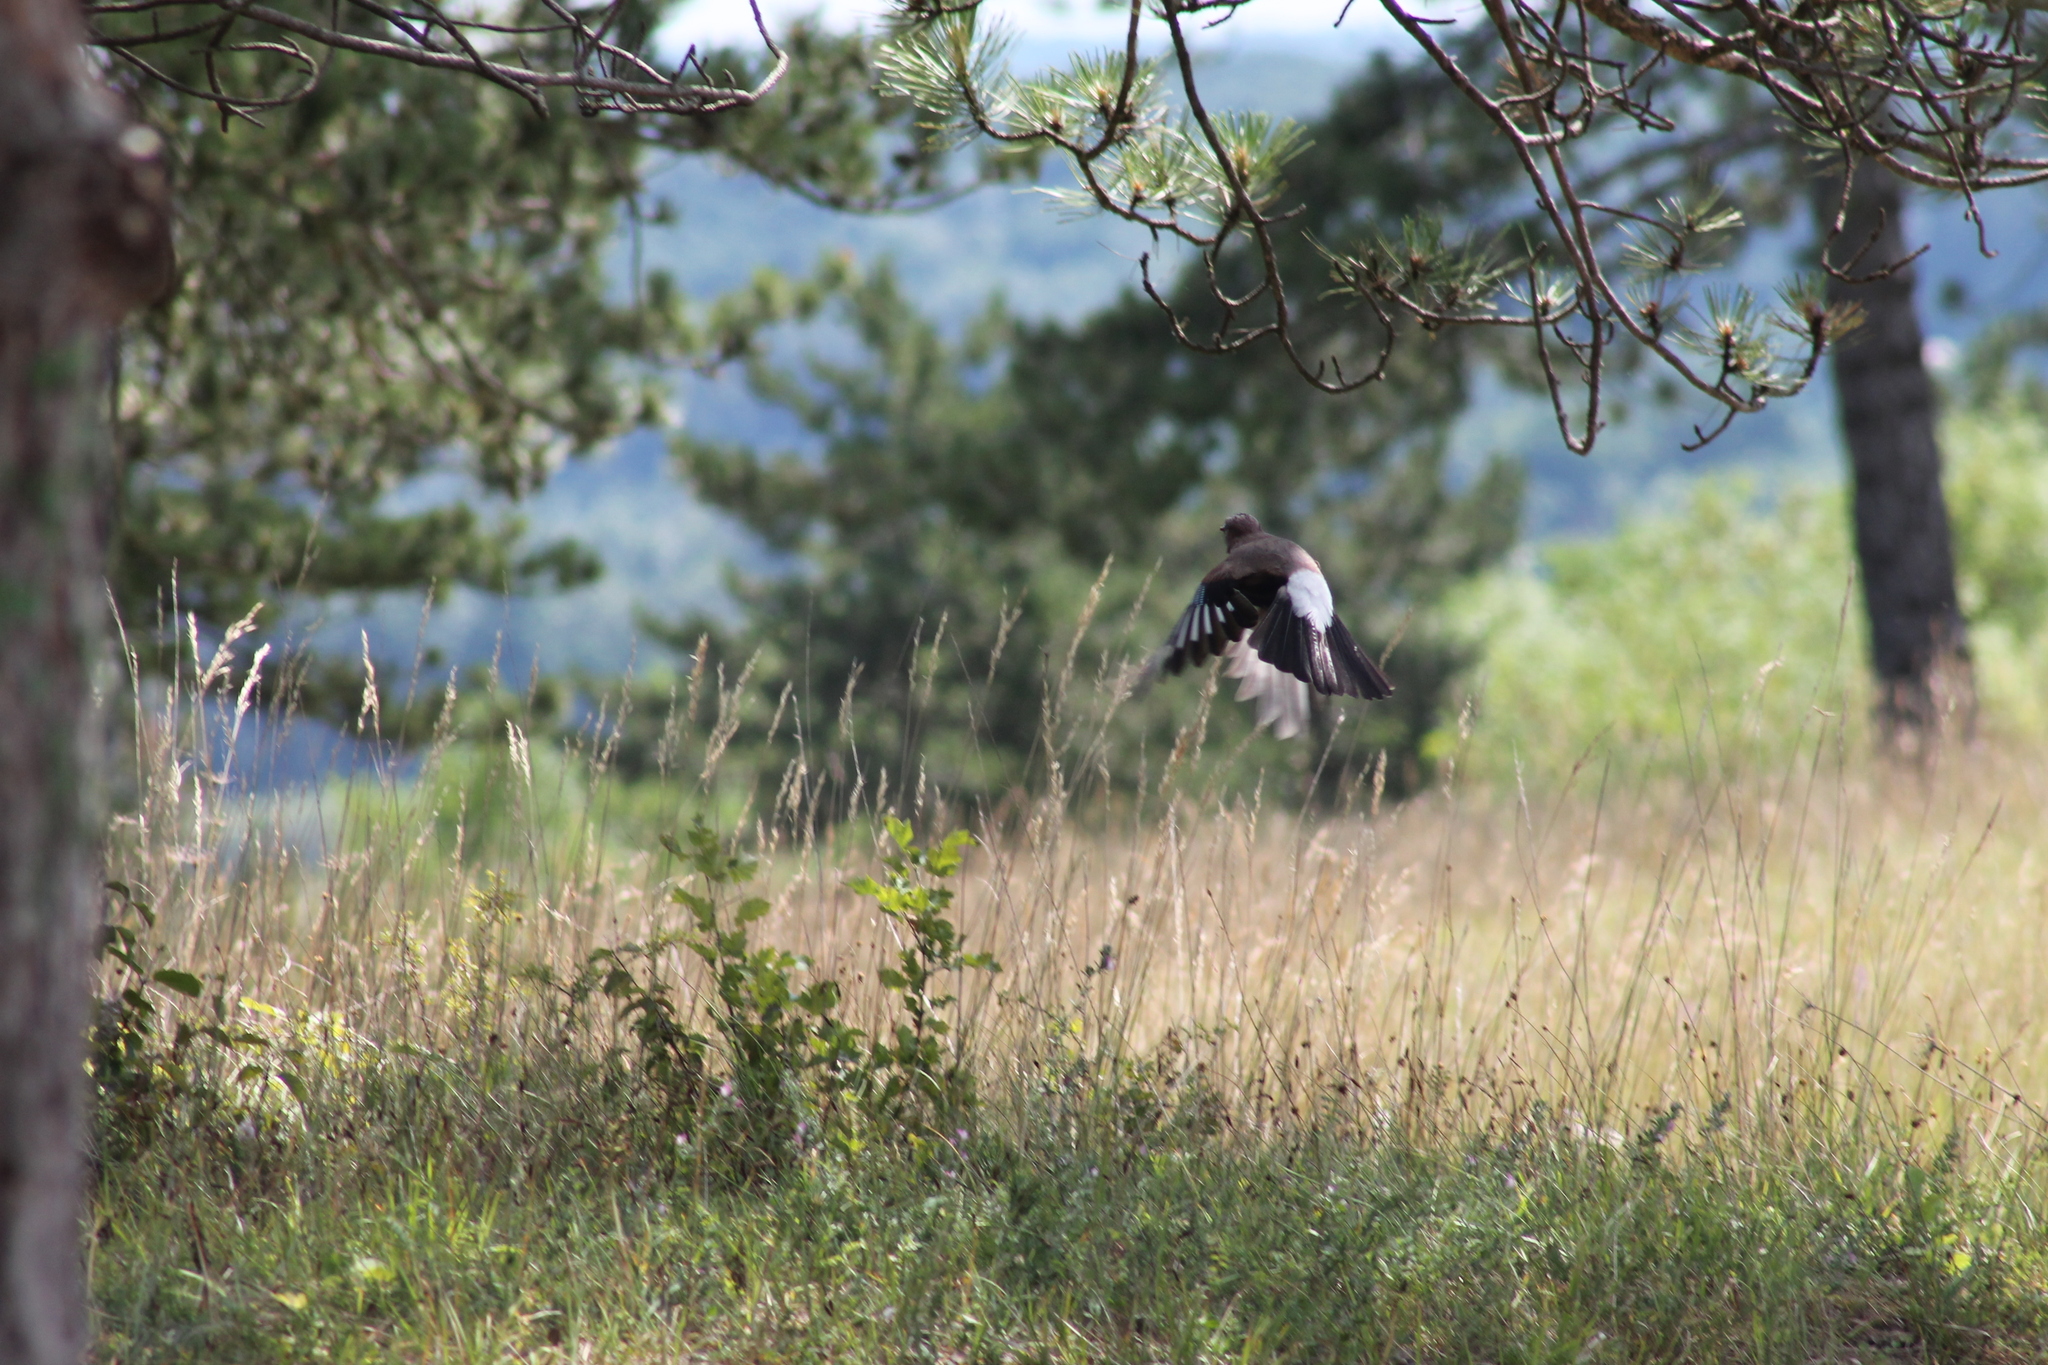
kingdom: Animalia
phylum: Chordata
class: Aves
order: Passeriformes
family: Corvidae
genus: Garrulus
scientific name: Garrulus glandarius
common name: Eurasian jay
